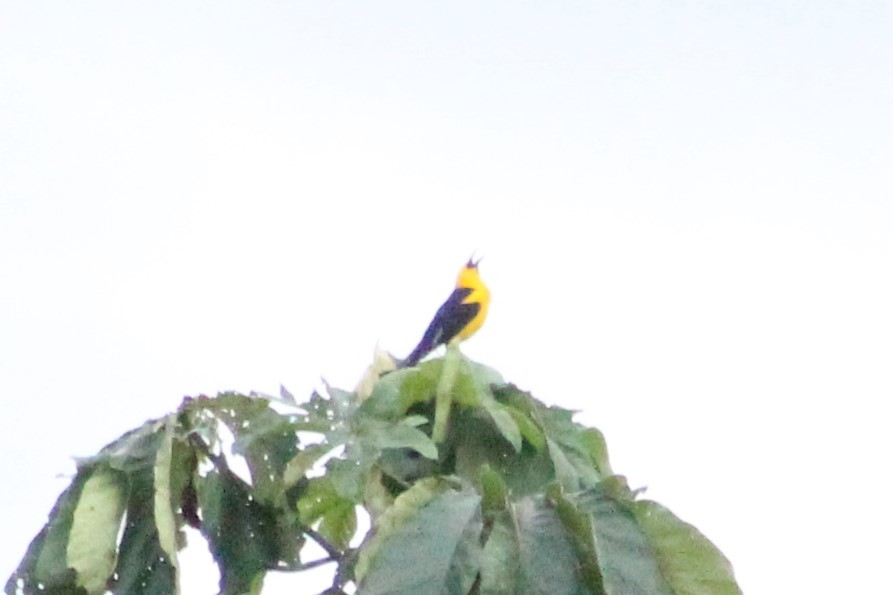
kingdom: Animalia
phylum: Chordata
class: Aves
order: Passeriformes
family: Icteridae
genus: Gymnomystax
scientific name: Gymnomystax mexicanus
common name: Oriole blackbird
